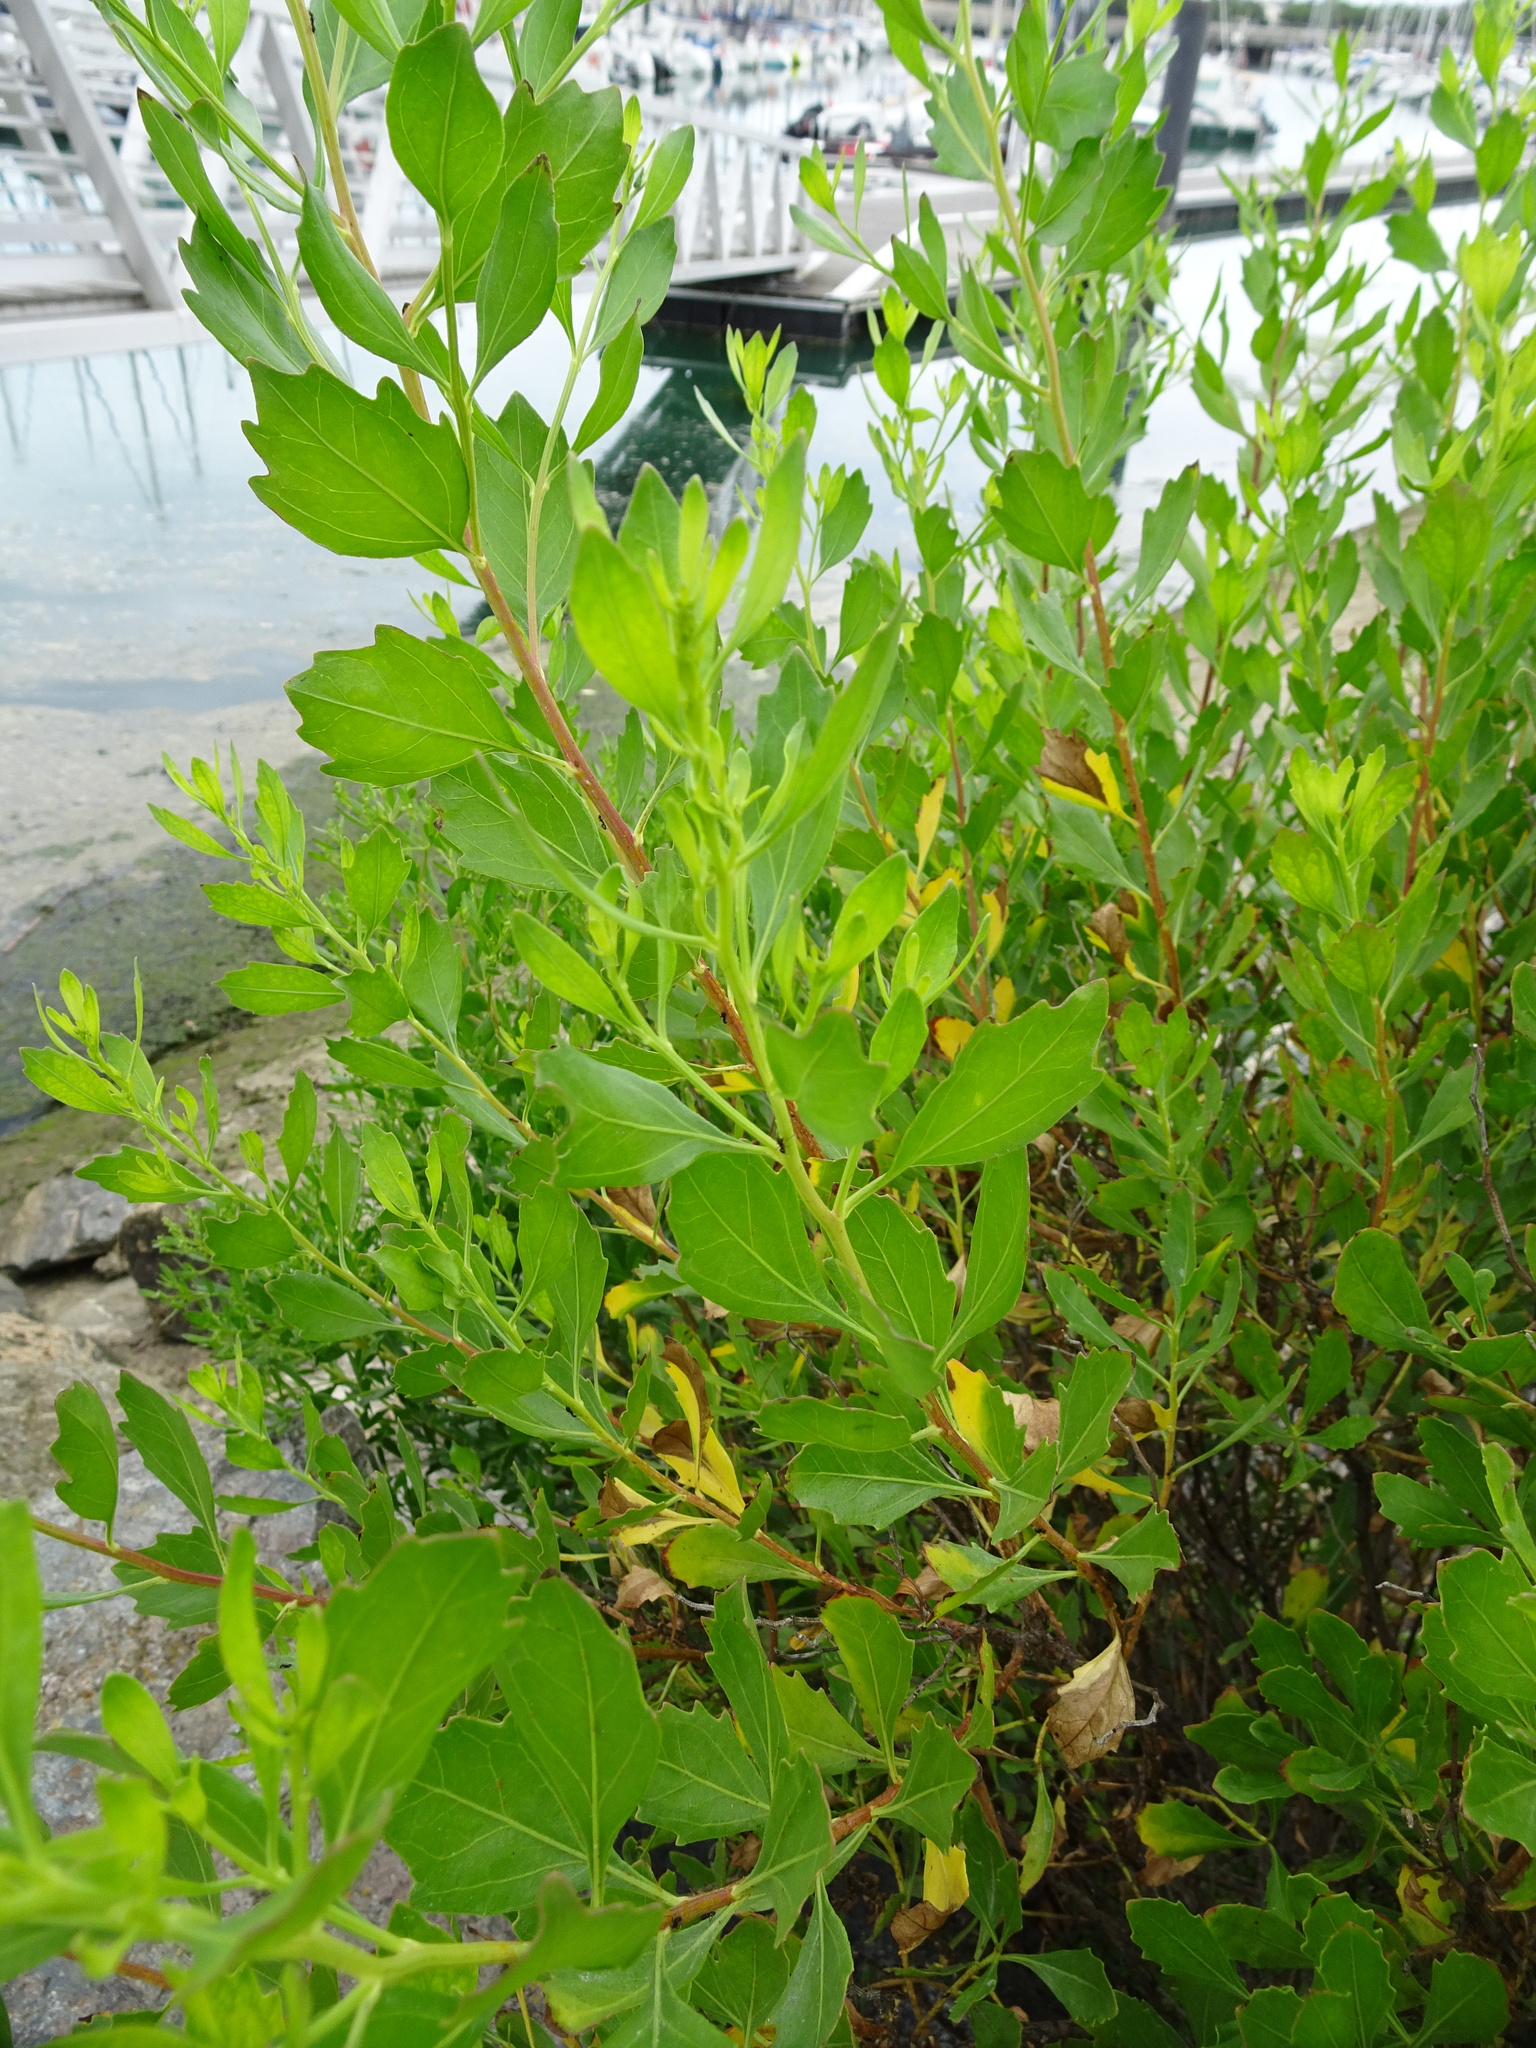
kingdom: Plantae
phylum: Tracheophyta
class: Magnoliopsida
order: Asterales
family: Asteraceae
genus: Baccharis
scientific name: Baccharis halimifolia
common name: Eastern baccharis
